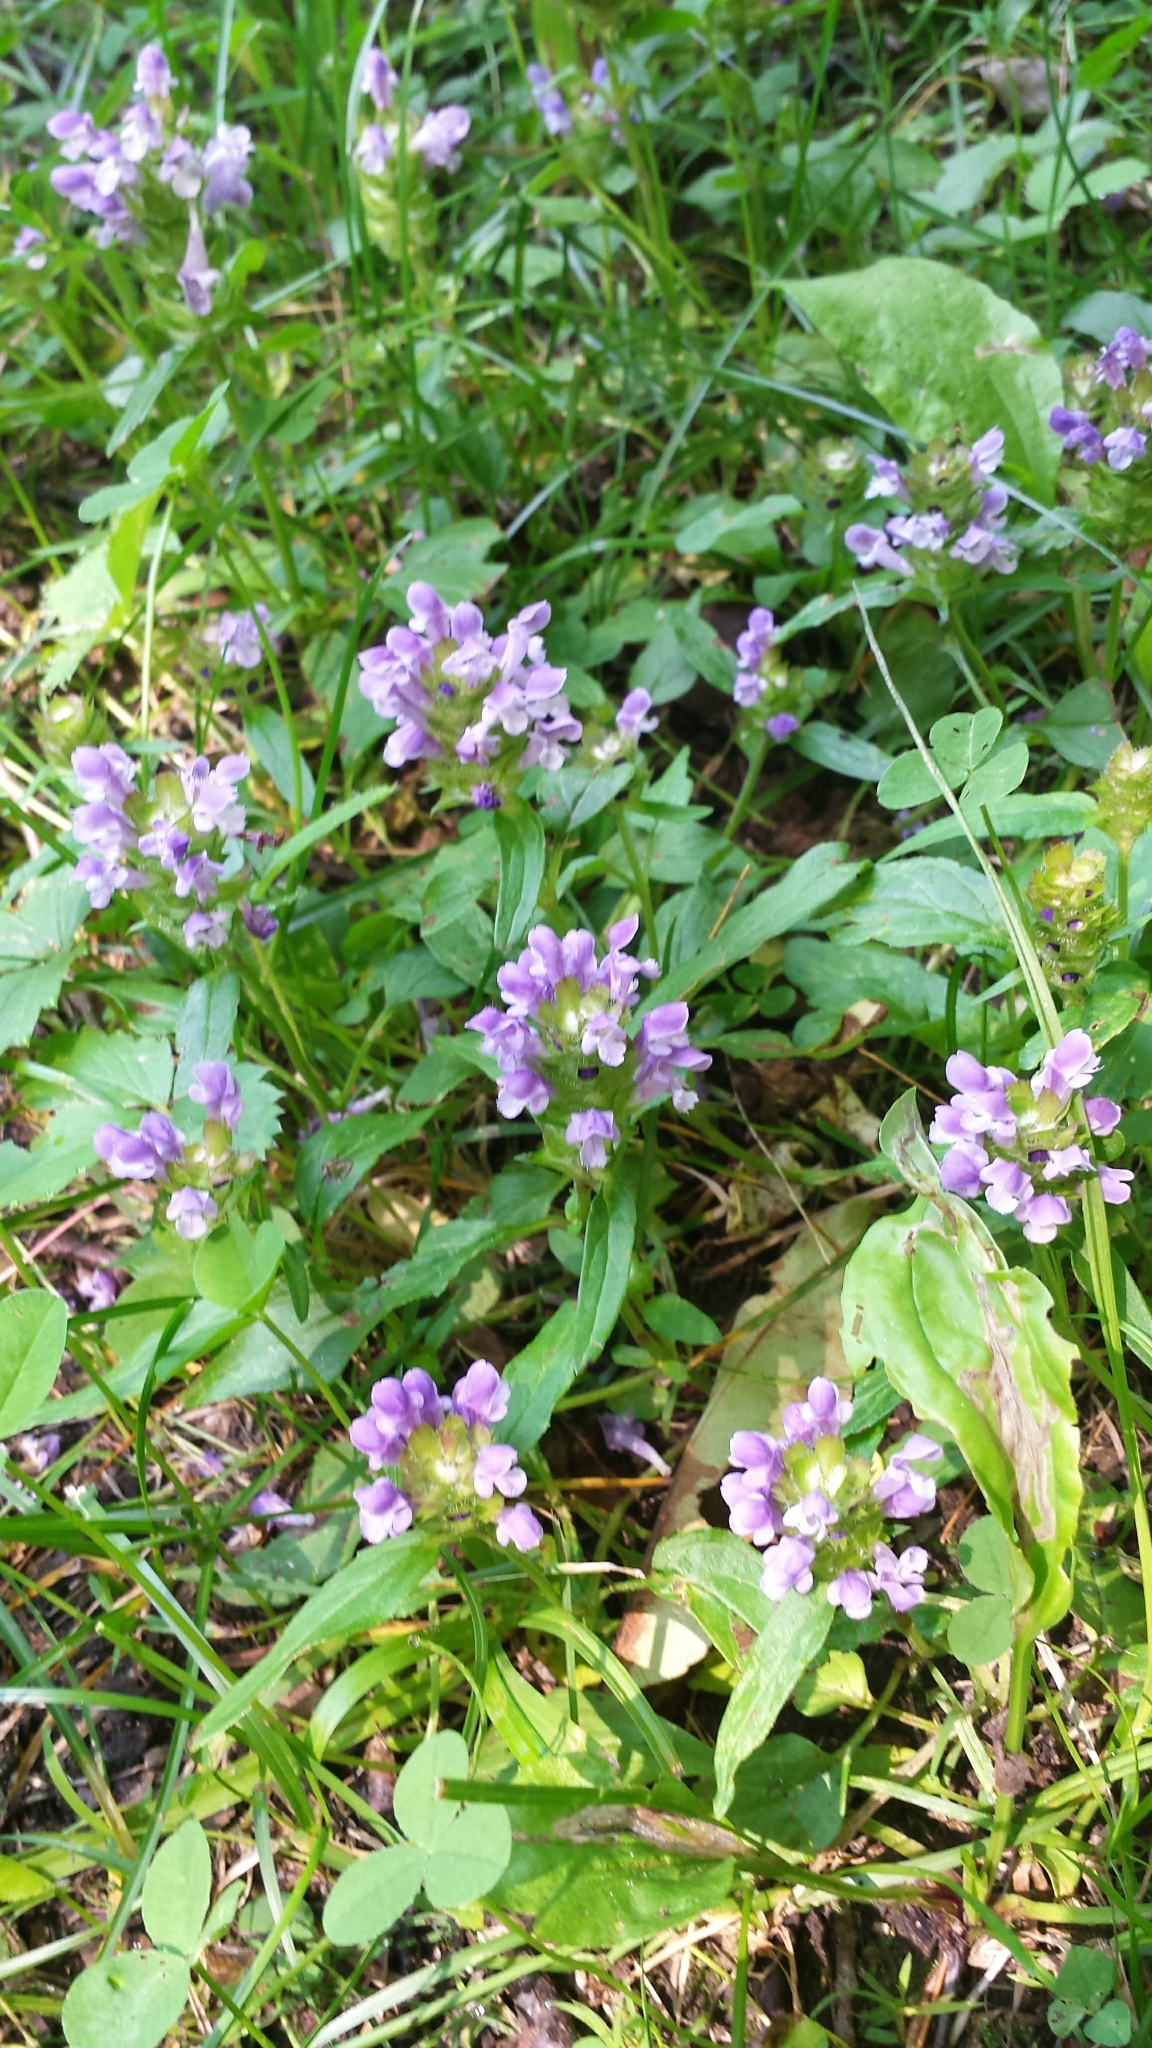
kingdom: Plantae
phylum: Tracheophyta
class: Magnoliopsida
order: Lamiales
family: Lamiaceae
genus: Prunella
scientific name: Prunella vulgaris
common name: Heal-all
